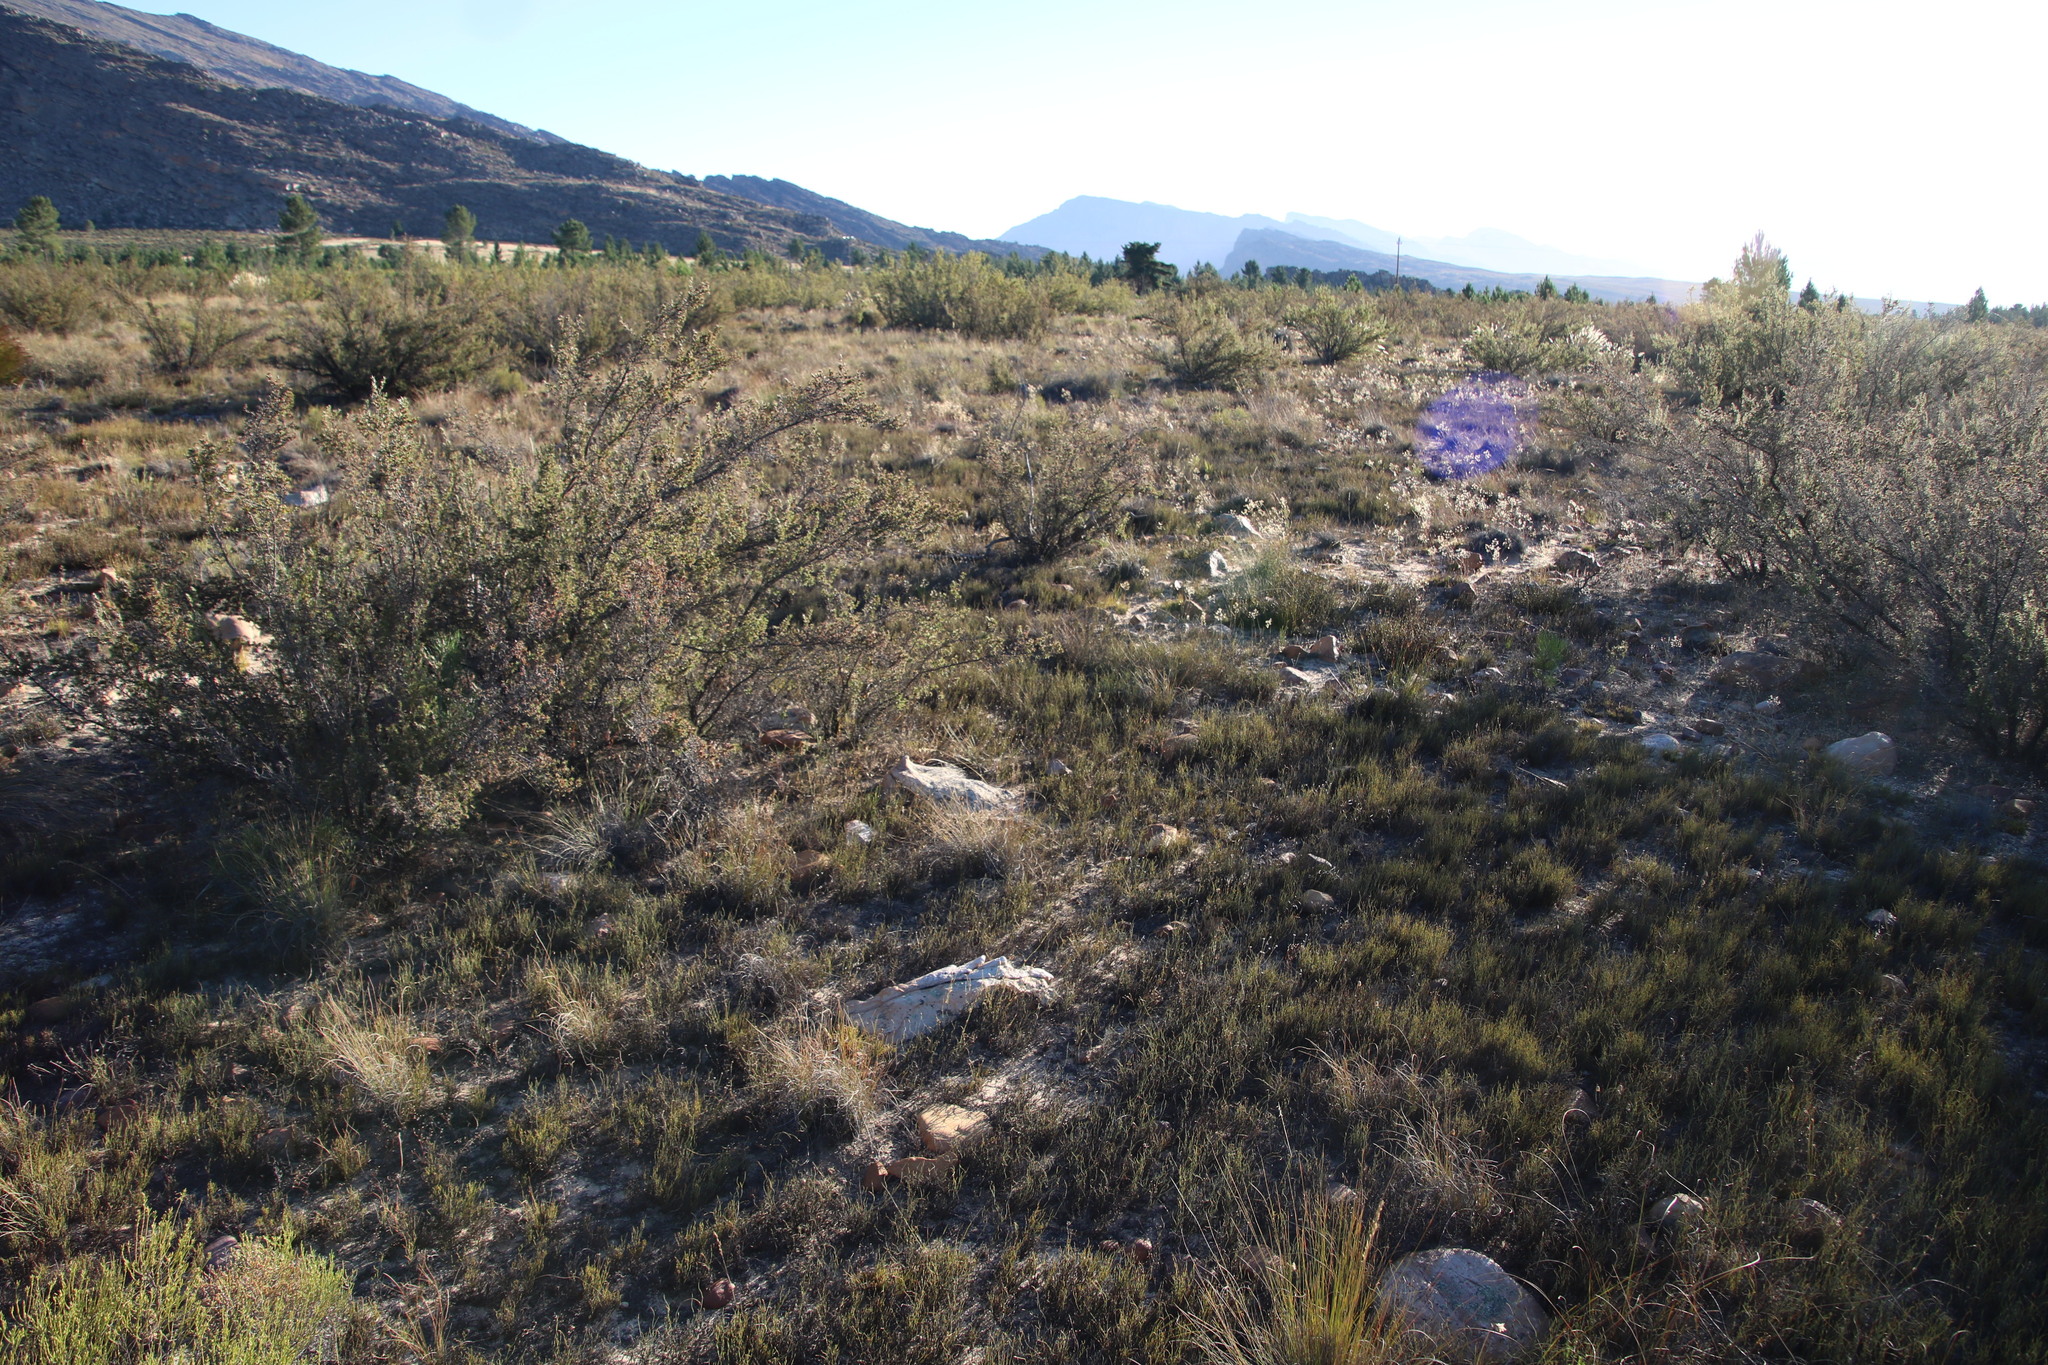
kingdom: Plantae
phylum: Tracheophyta
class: Magnoliopsida
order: Rosales
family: Rosaceae
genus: Cliffortia
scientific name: Cliffortia ruscifolia
